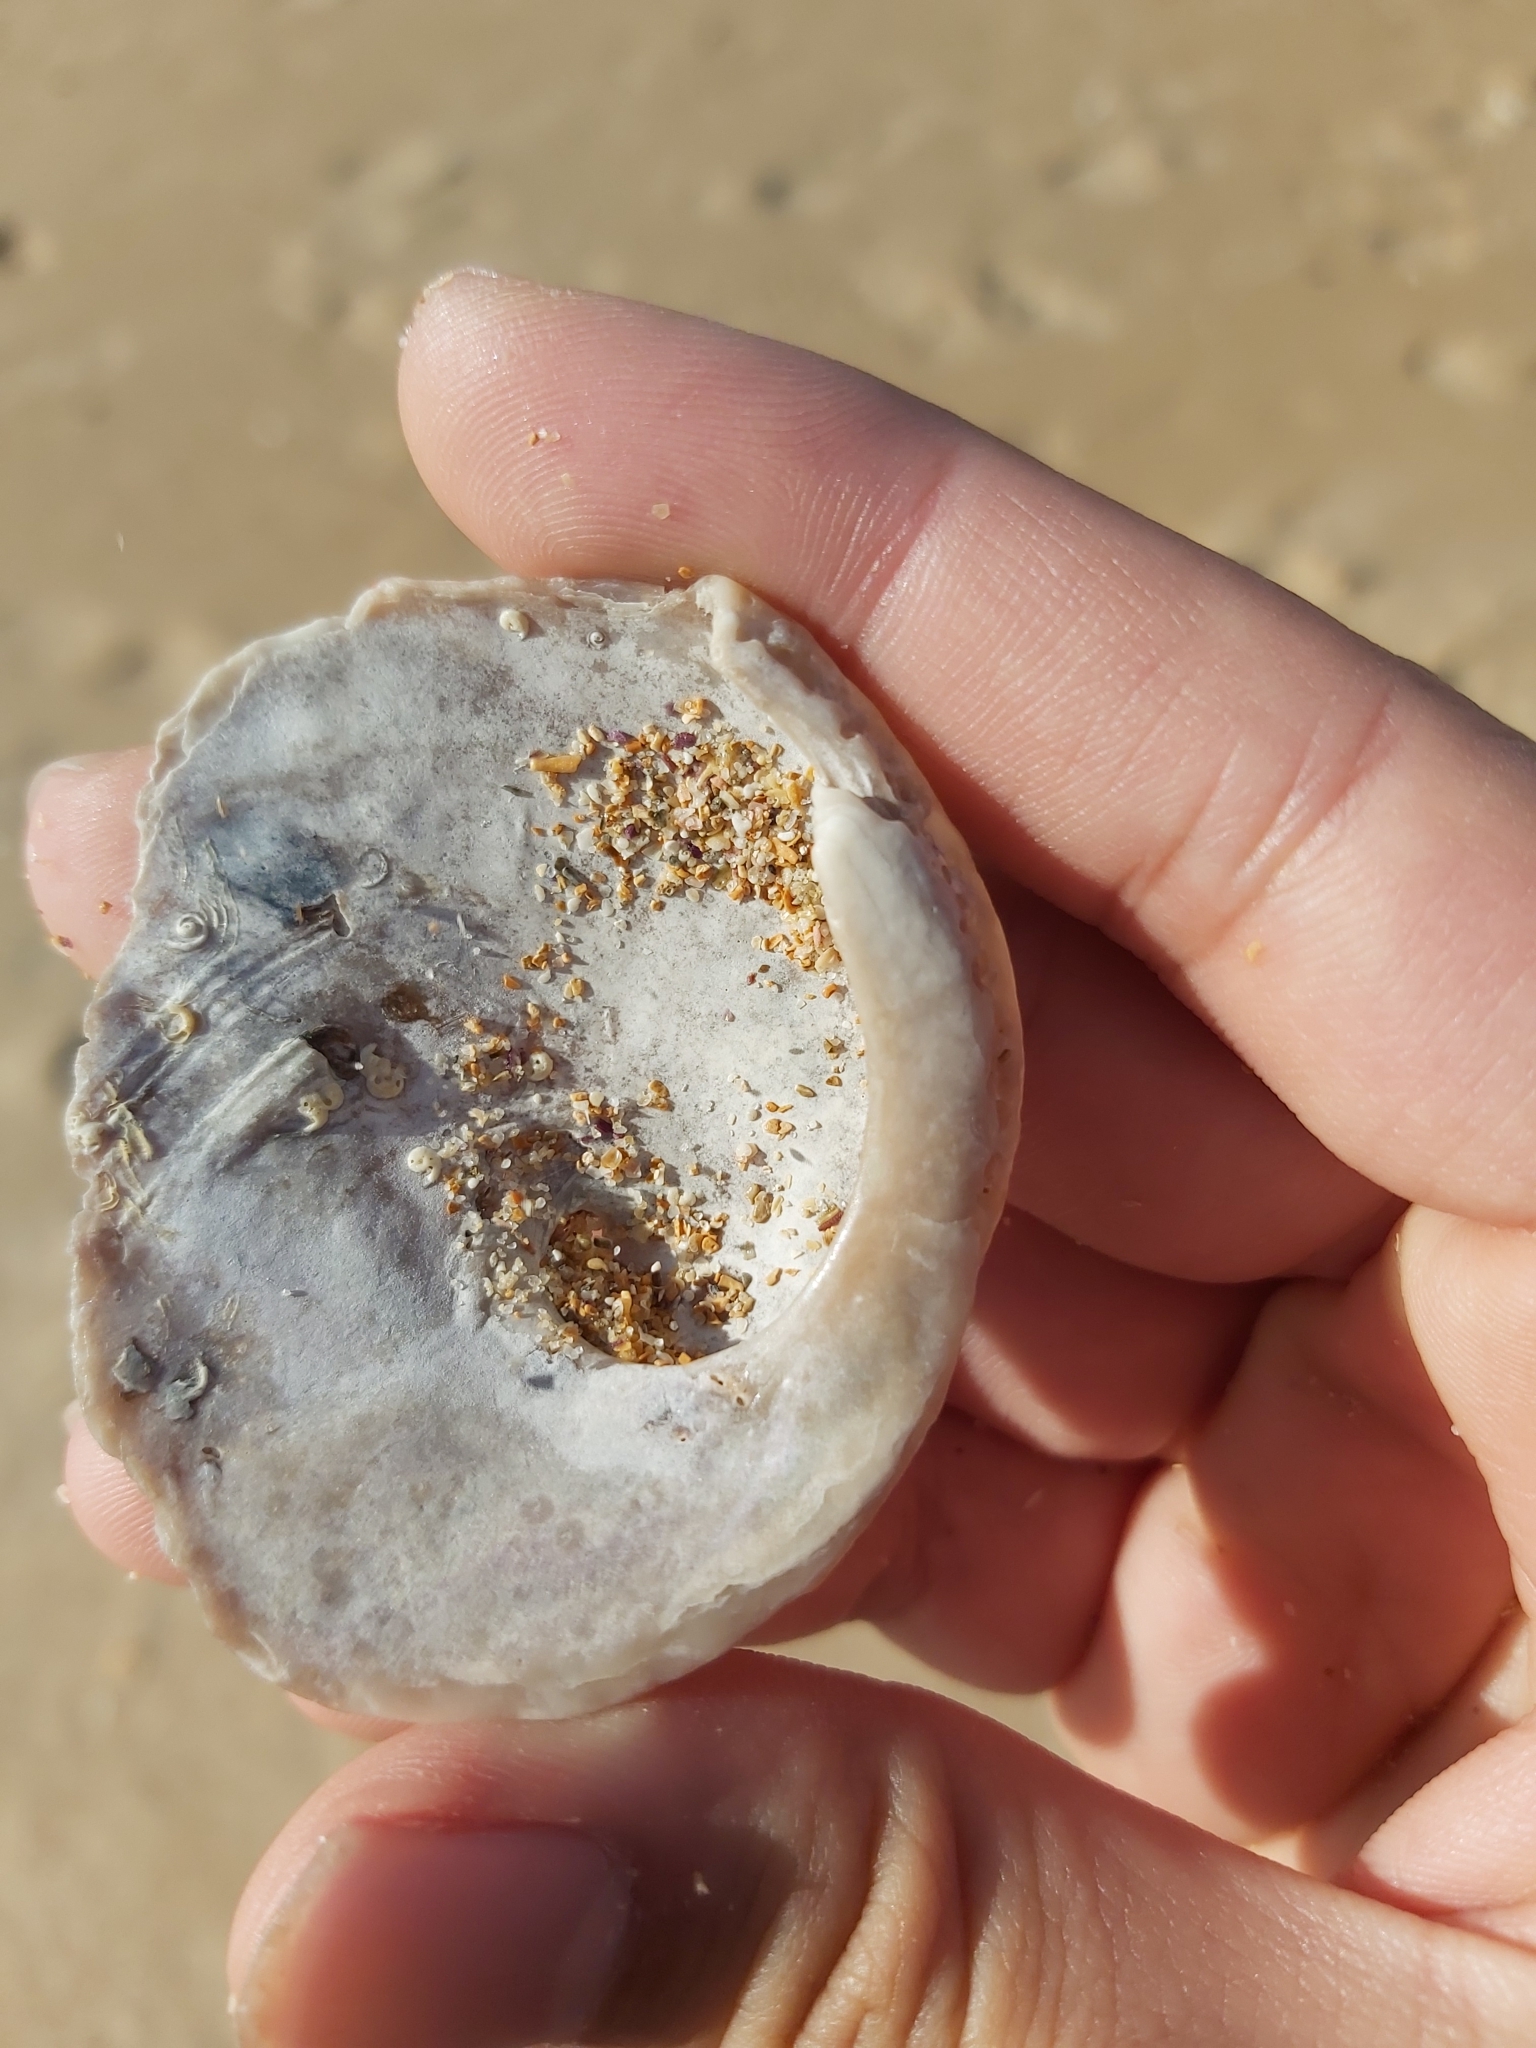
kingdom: Animalia
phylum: Mollusca
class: Gastropoda
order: Lepetellida
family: Haliotidae
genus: Haliotis
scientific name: Haliotis rubra
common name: Blacklip abalone
